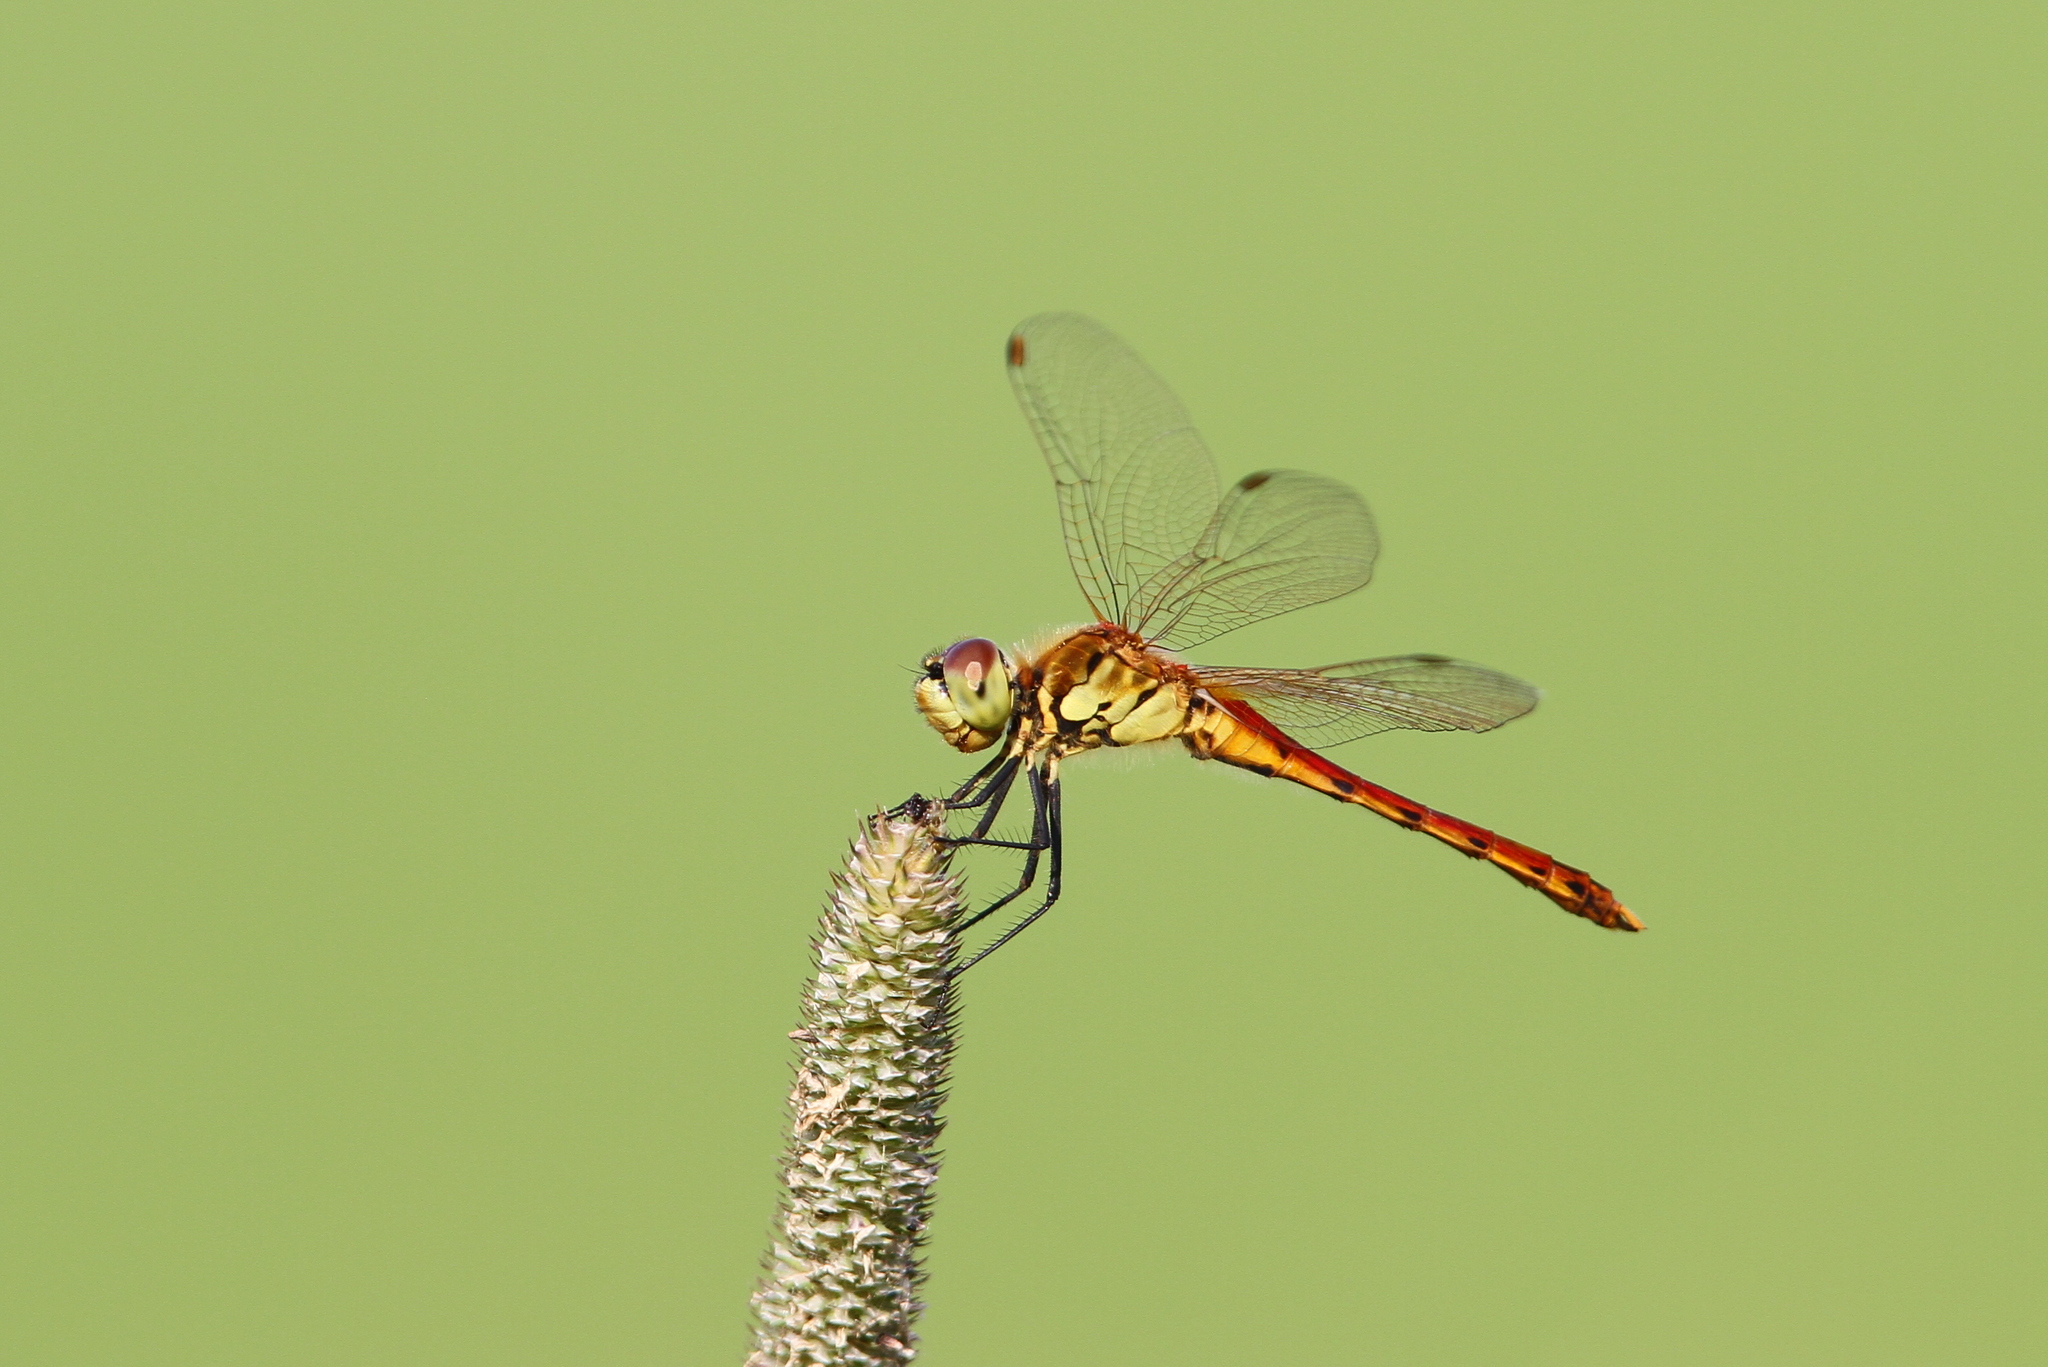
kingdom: Animalia
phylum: Arthropoda
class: Insecta
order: Odonata
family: Libellulidae
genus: Sympetrum
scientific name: Sympetrum depressiusculum
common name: Spotted darter
